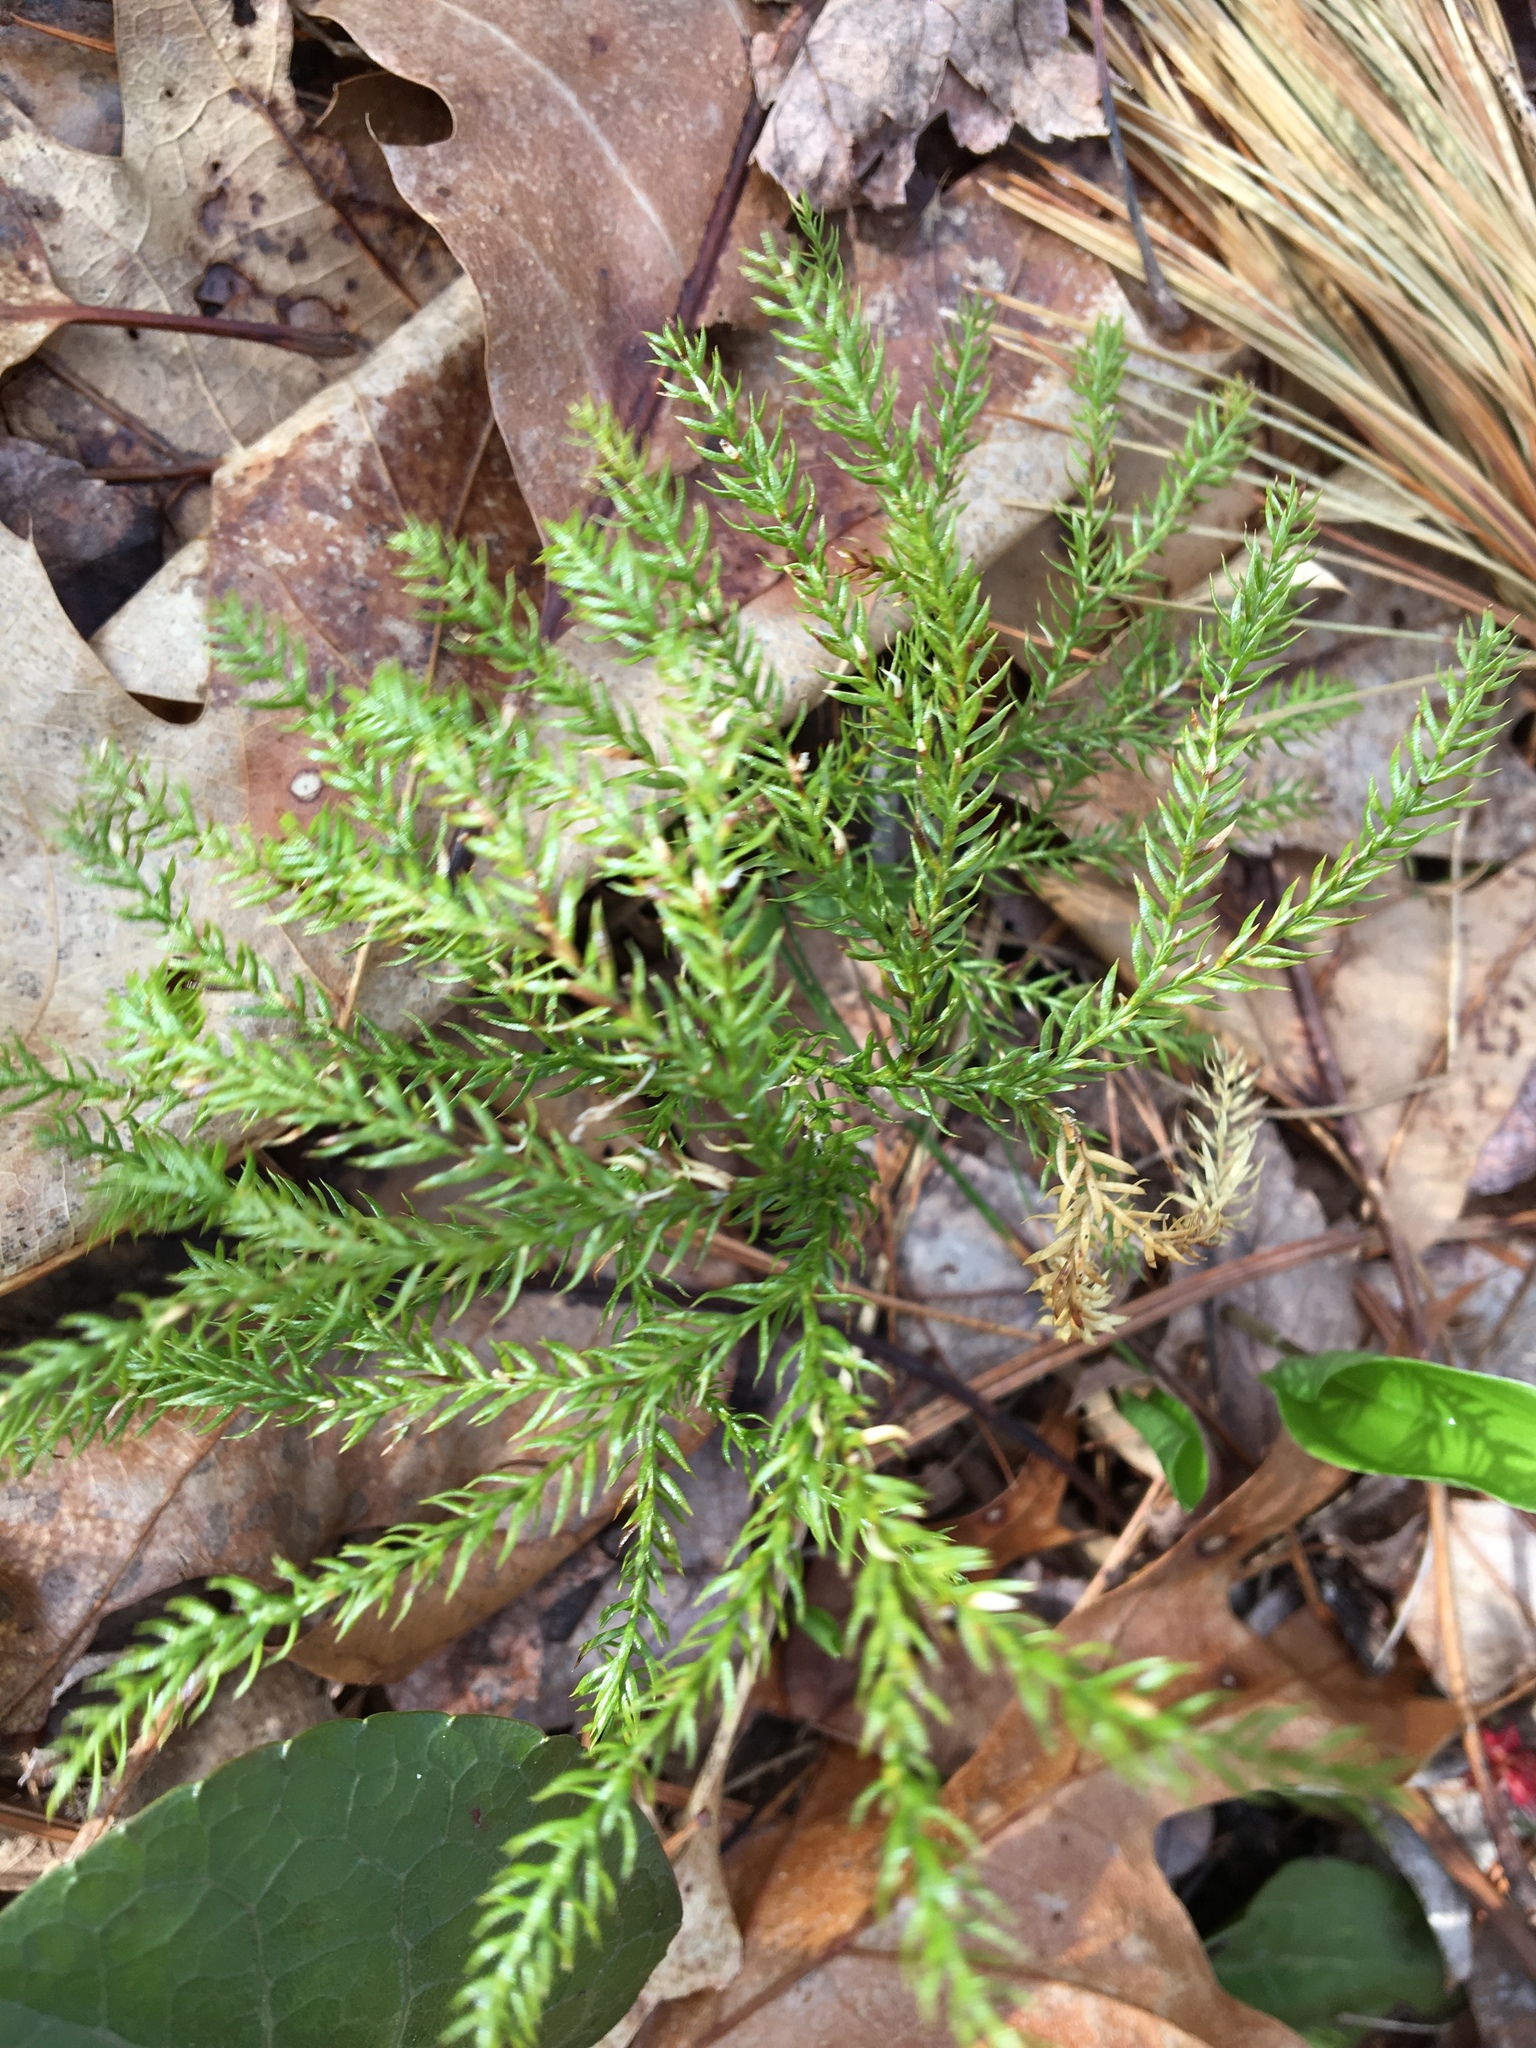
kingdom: Plantae
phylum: Tracheophyta
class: Lycopodiopsida
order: Lycopodiales
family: Lycopodiaceae
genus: Dendrolycopodium
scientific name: Dendrolycopodium obscurum
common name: Common ground-pine
